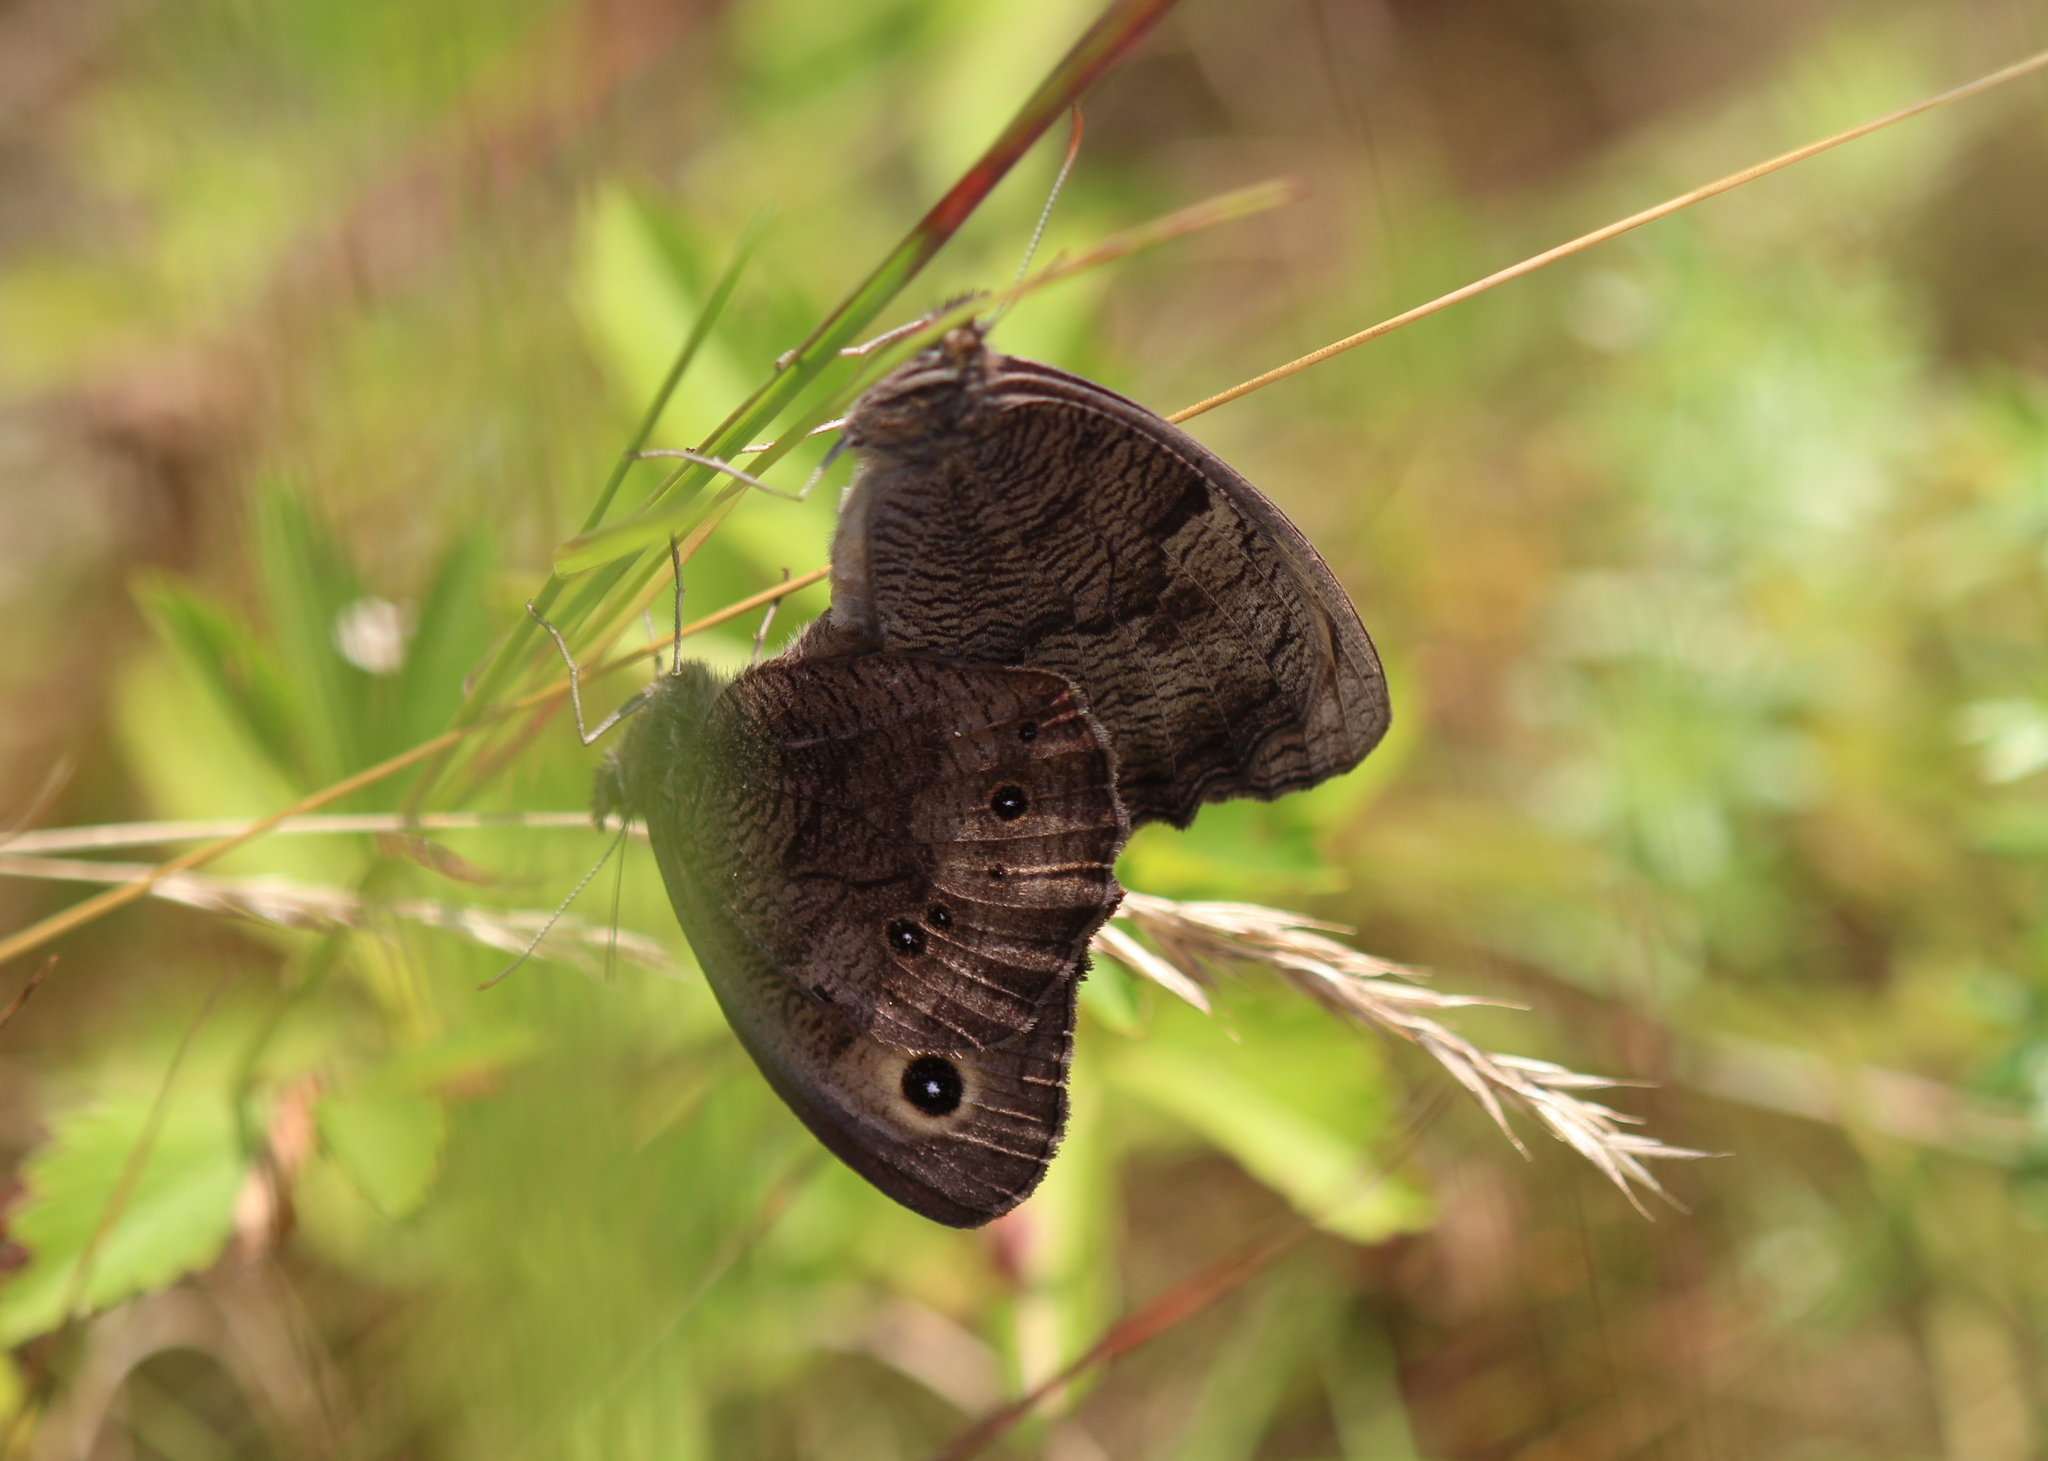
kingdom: Animalia
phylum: Arthropoda
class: Insecta
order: Lepidoptera
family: Nymphalidae
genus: Cercyonis
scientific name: Cercyonis pegala
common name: Common wood-nymph
